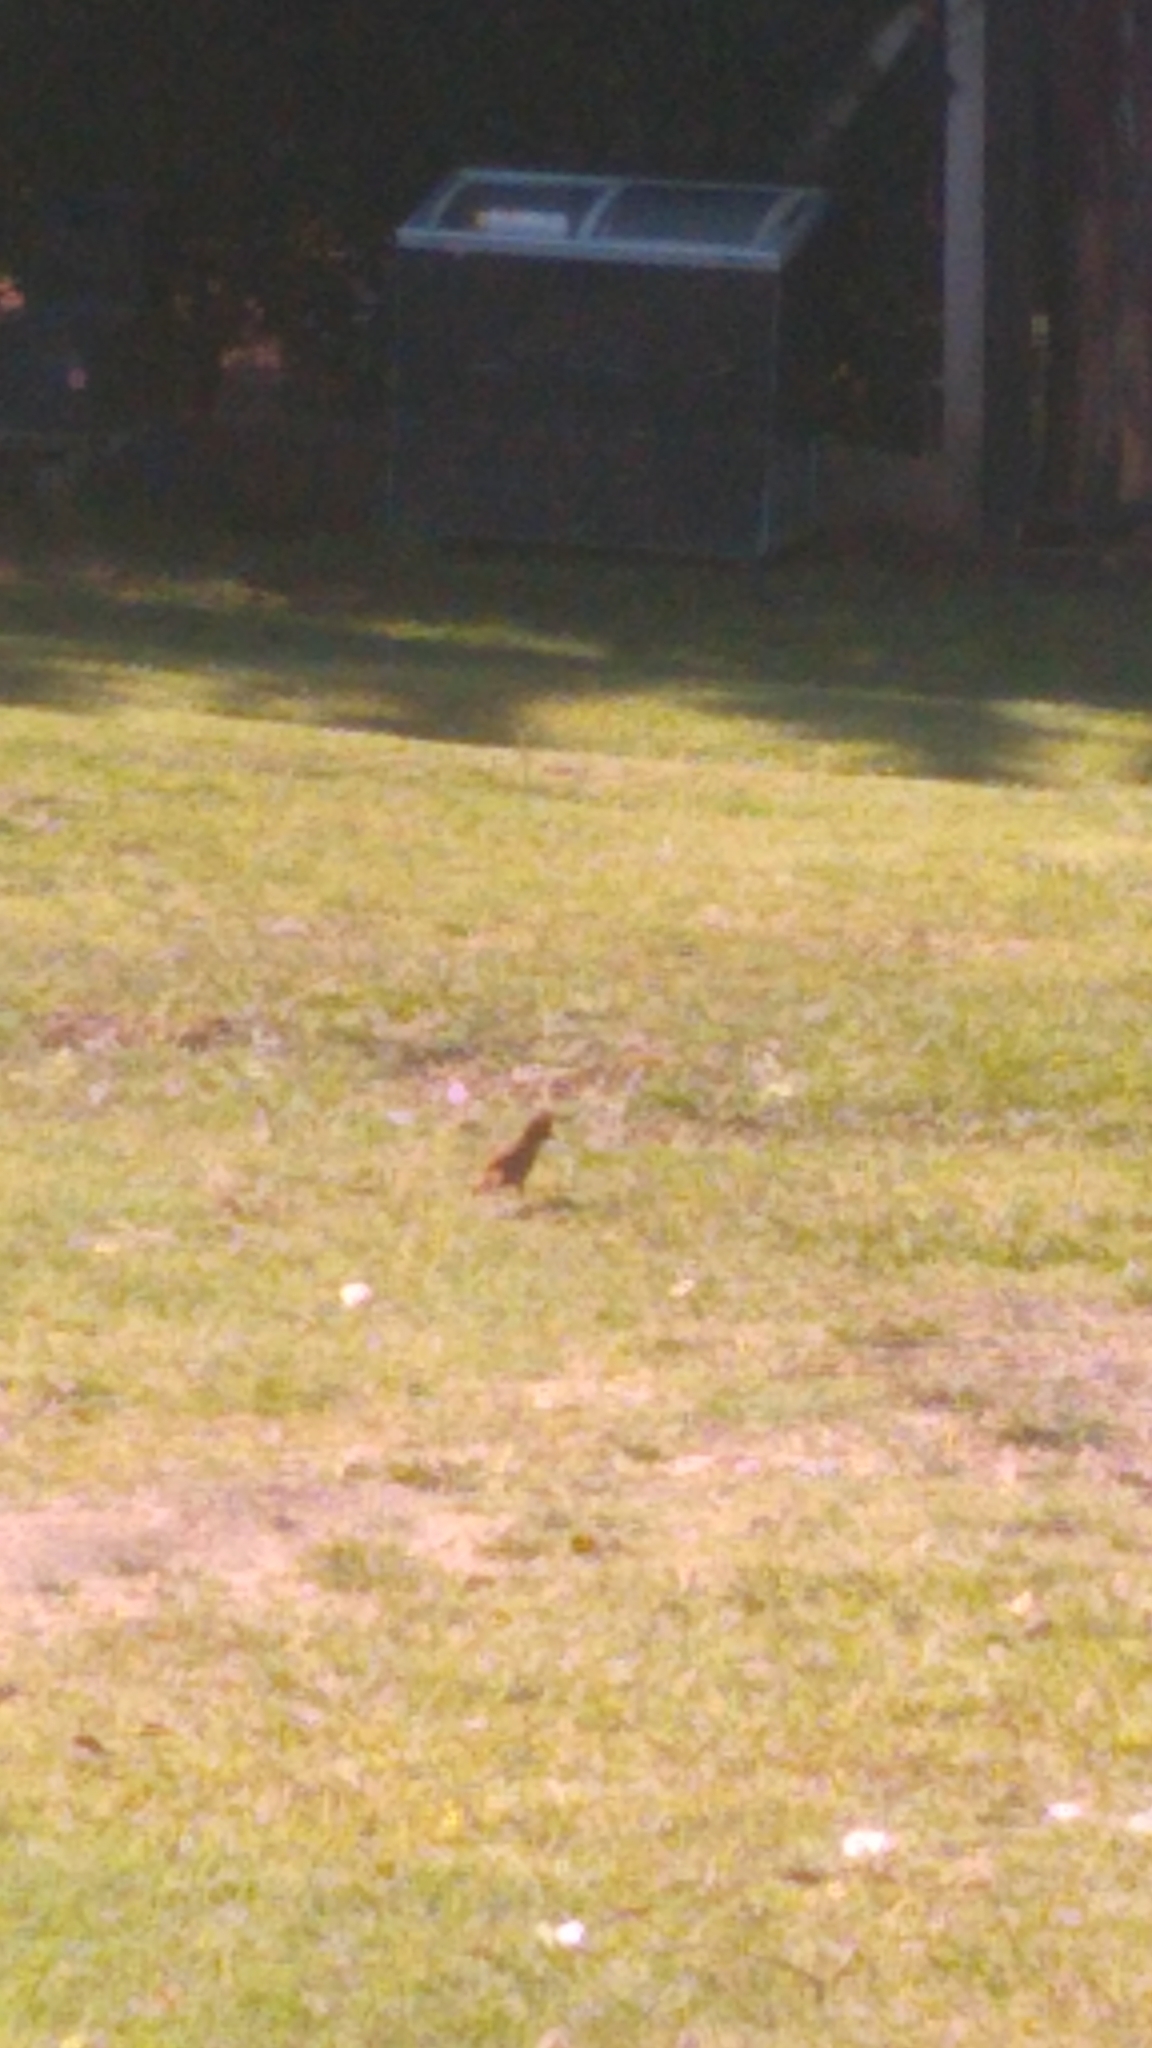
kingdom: Animalia
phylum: Chordata
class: Aves
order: Passeriformes
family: Furnariidae
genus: Pseudoseisura
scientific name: Pseudoseisura lophotes
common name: Brown cacholote
